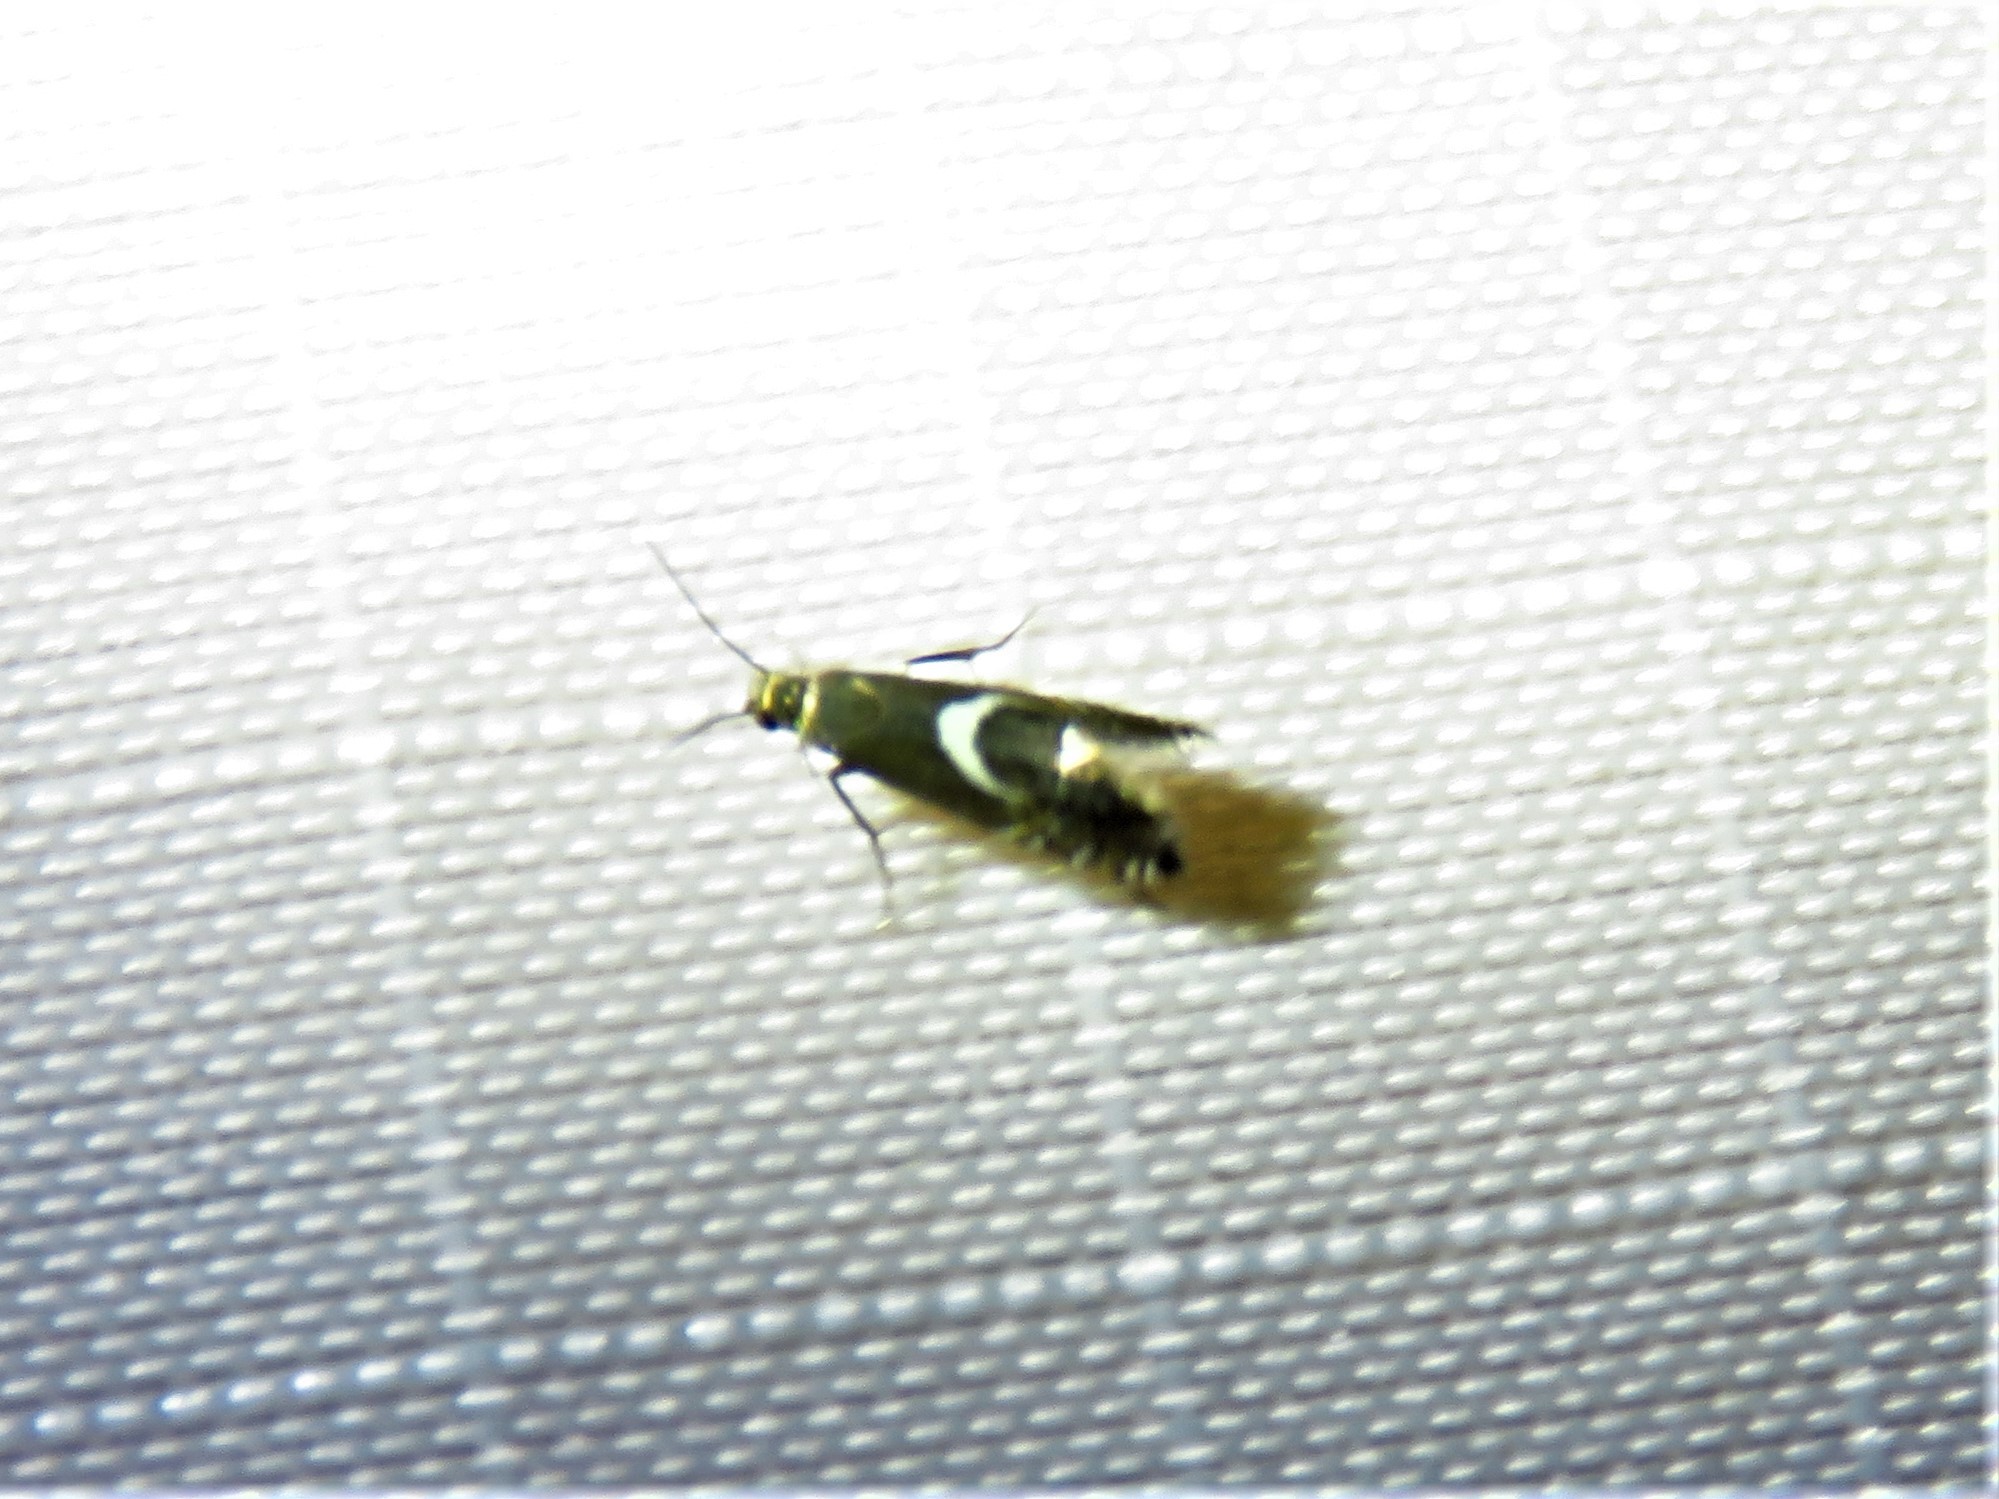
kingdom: Animalia
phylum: Arthropoda
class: Insecta
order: Lepidoptera
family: Glyphipterigidae
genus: Glyphipterix
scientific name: Glyphipterix Diploschizia impigritella
